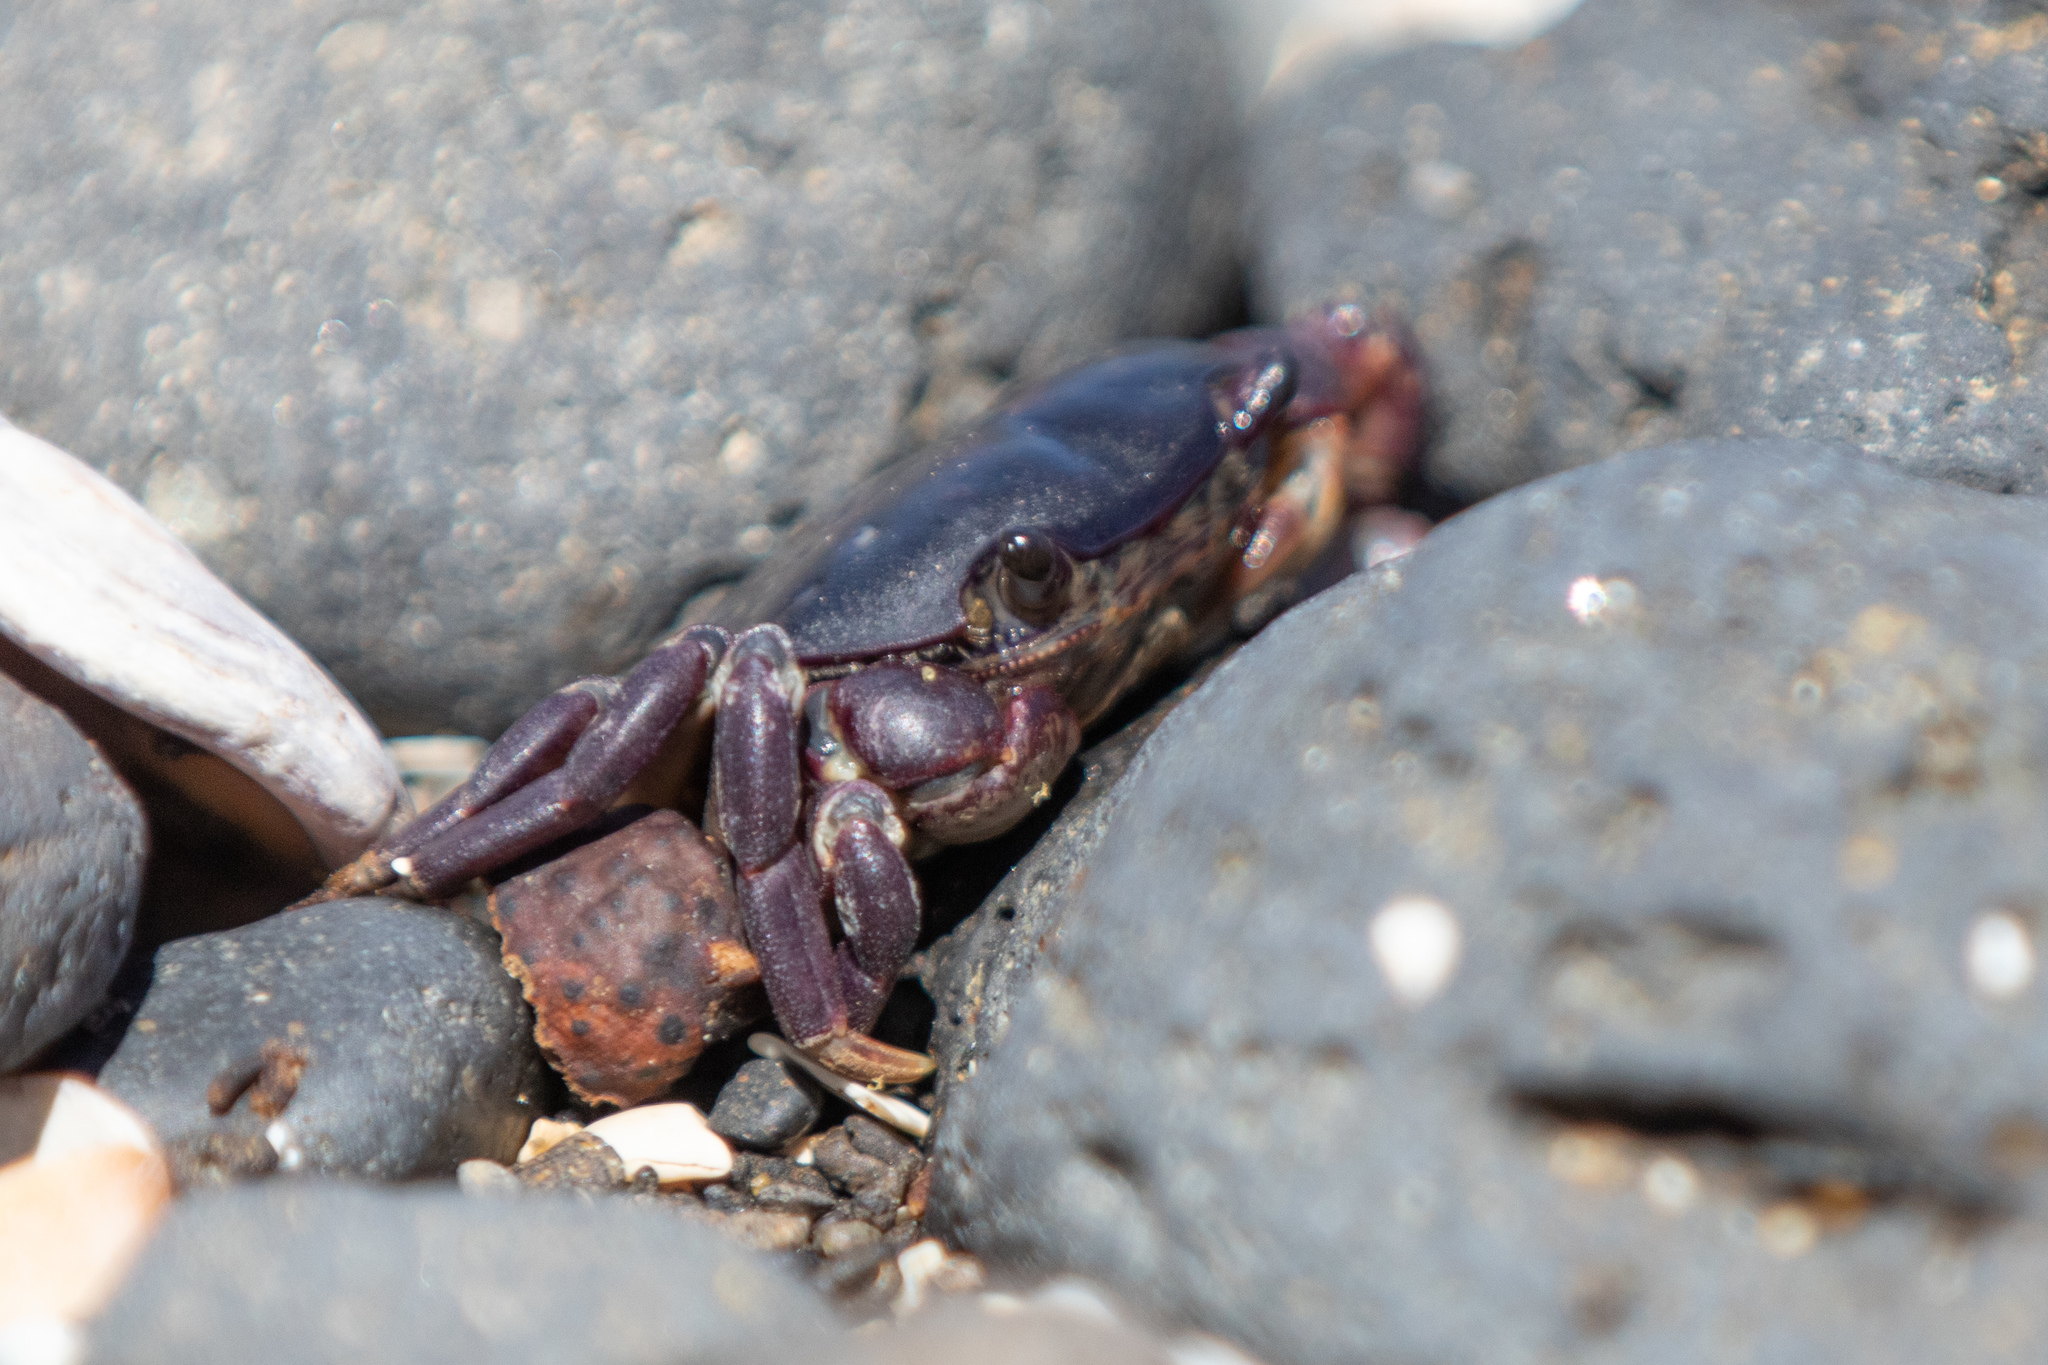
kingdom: Animalia
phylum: Arthropoda
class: Malacostraca
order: Decapoda
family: Varunidae
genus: Cyclograpsus
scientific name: Cyclograpsus lavauxi
